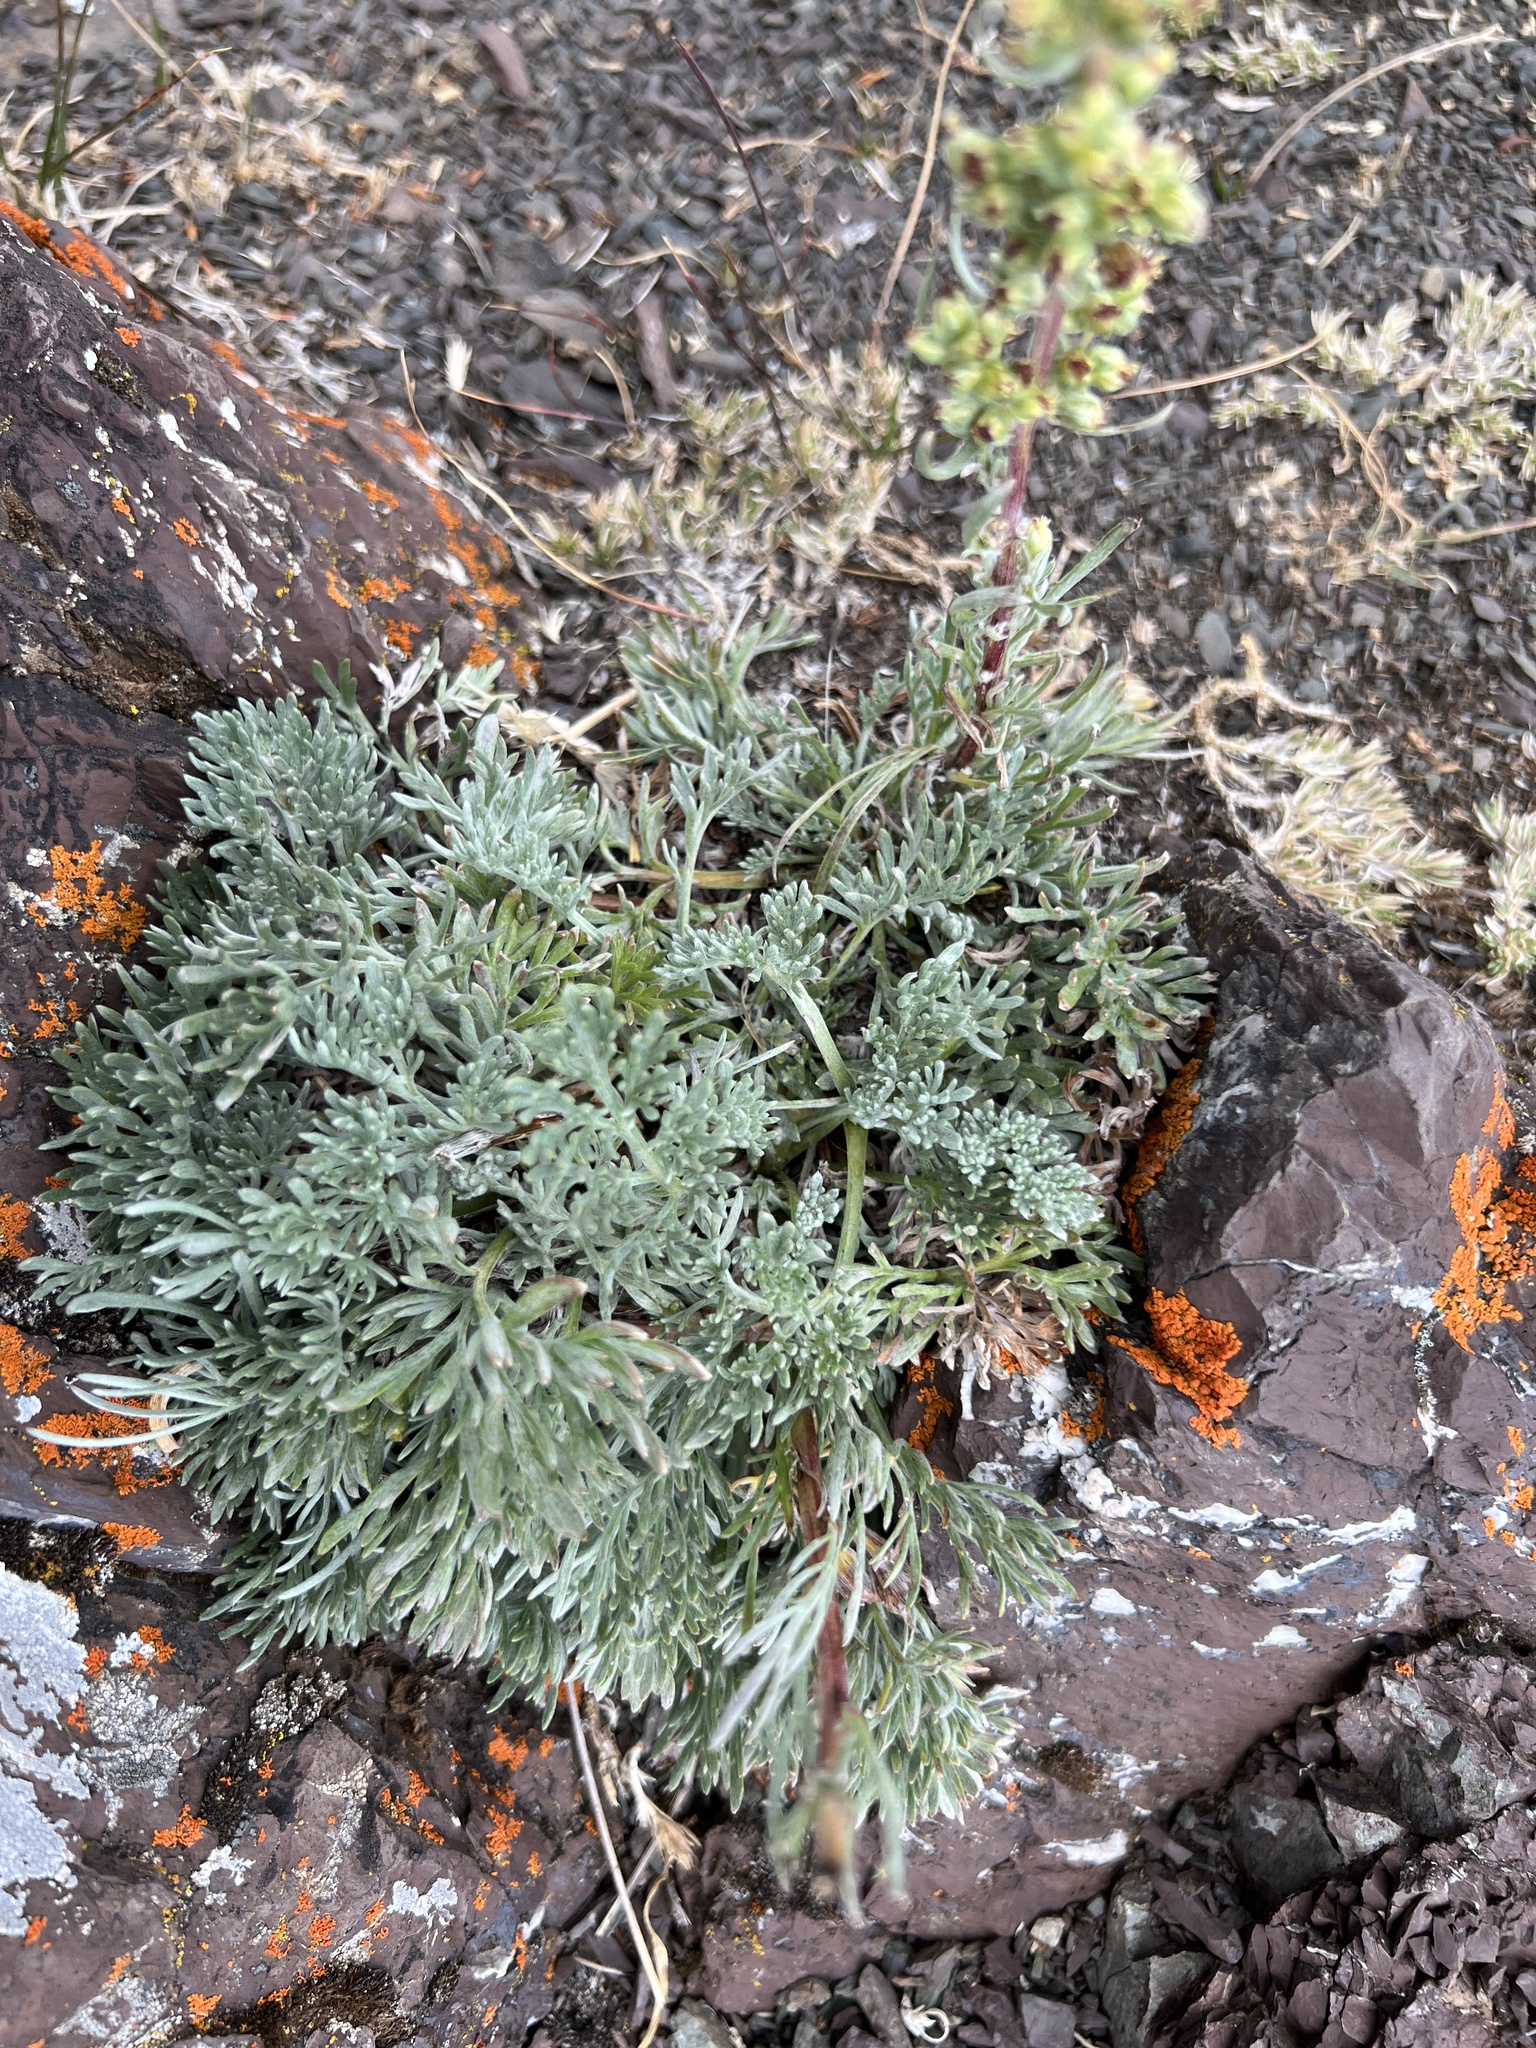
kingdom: Plantae
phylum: Tracheophyta
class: Magnoliopsida
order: Asterales
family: Asteraceae
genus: Artemisia
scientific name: Artemisia borealis
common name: Boreal sage
